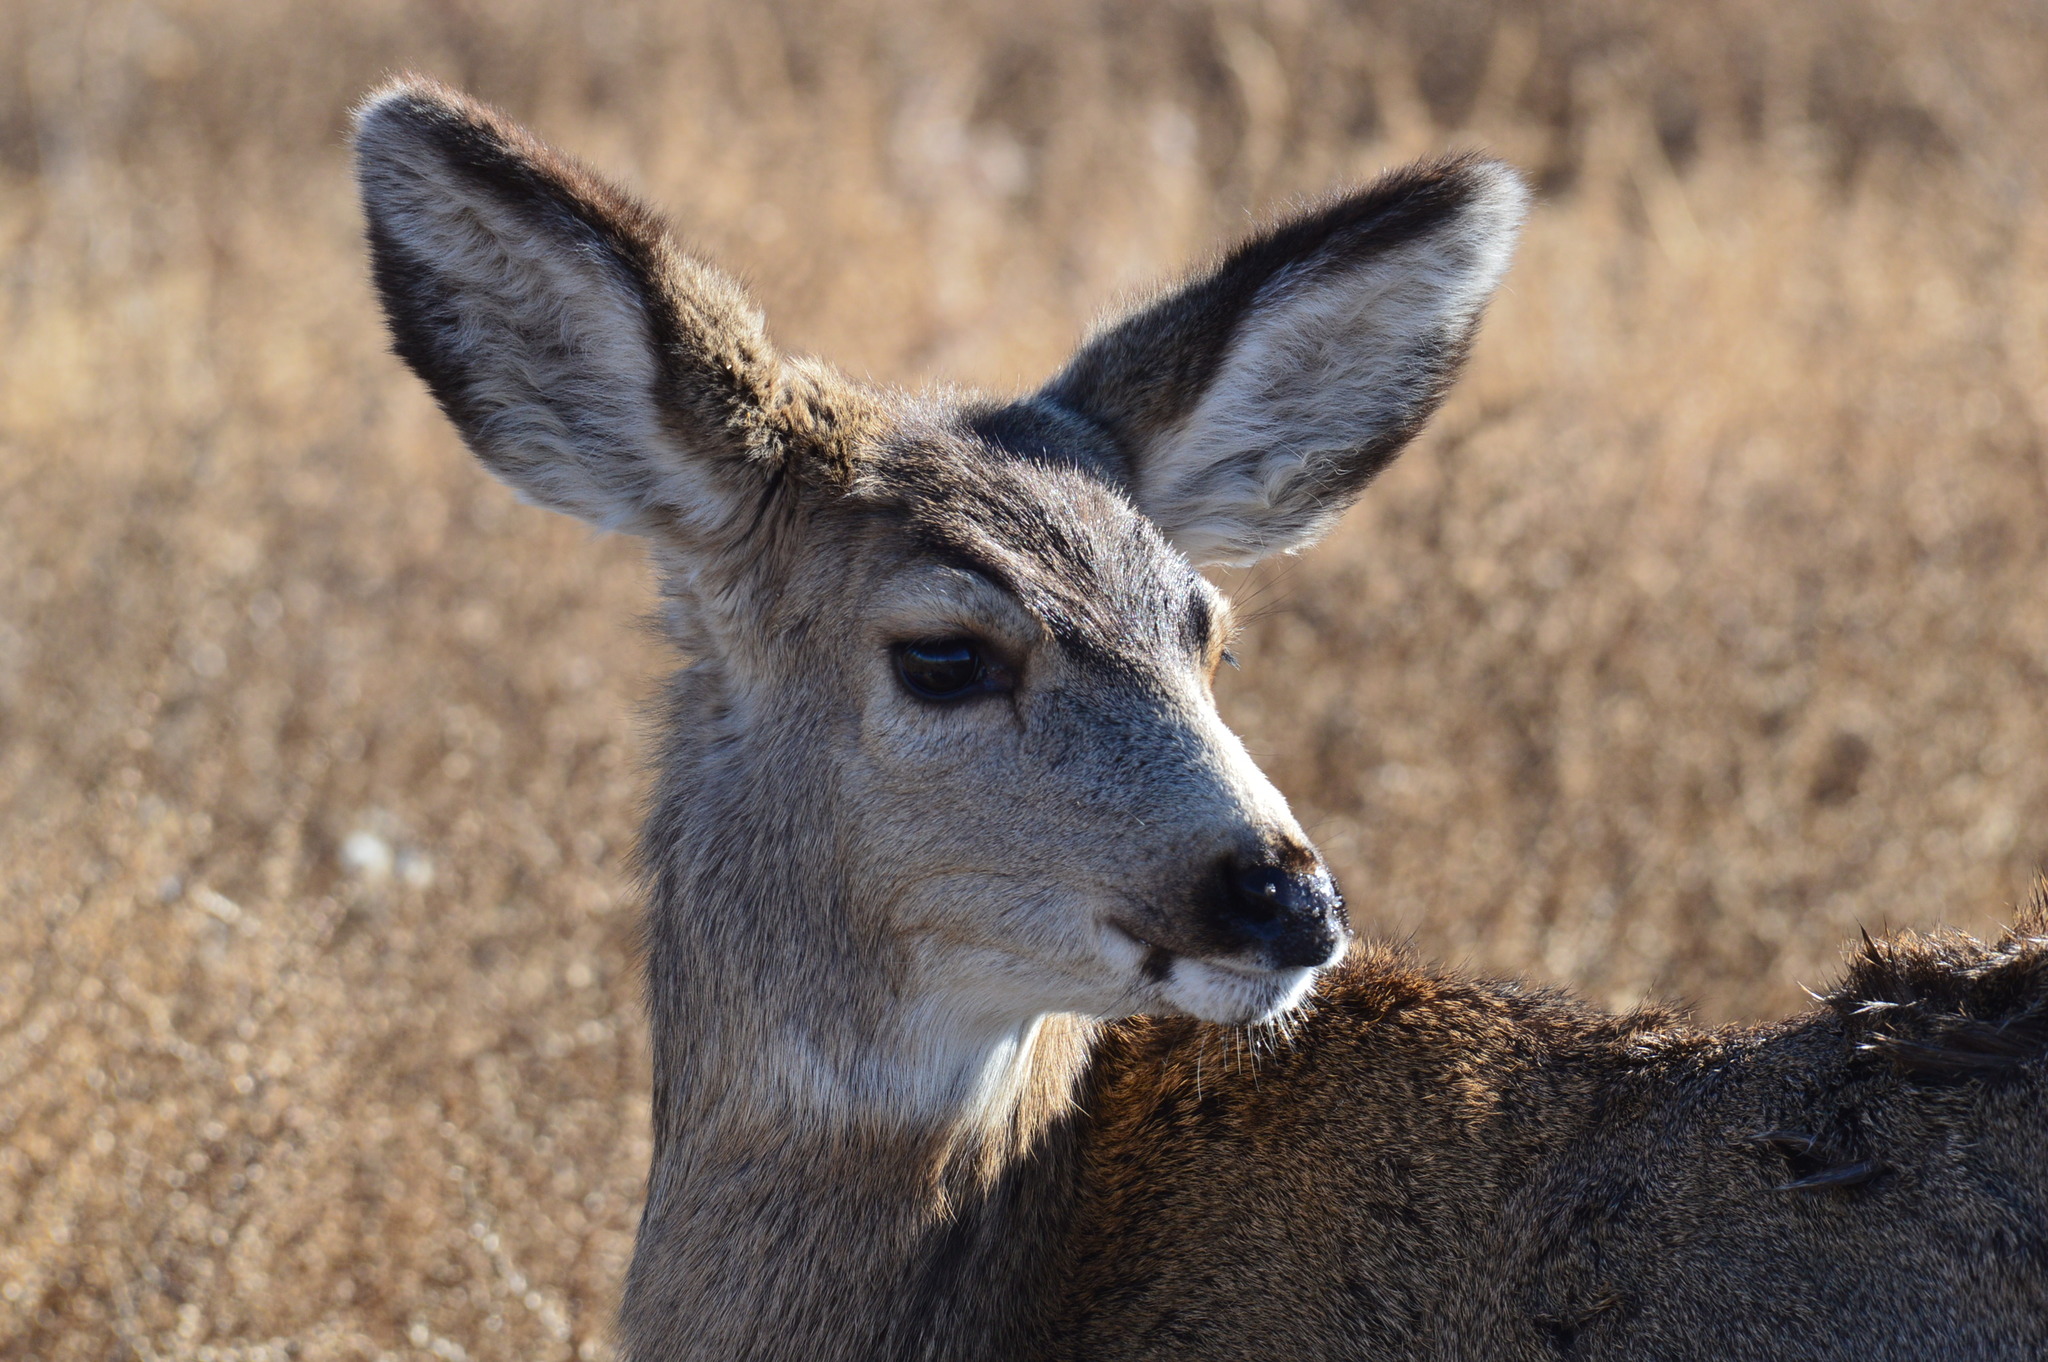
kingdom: Animalia
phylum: Chordata
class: Mammalia
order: Artiodactyla
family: Cervidae
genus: Odocoileus
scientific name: Odocoileus hemionus
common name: Mule deer
